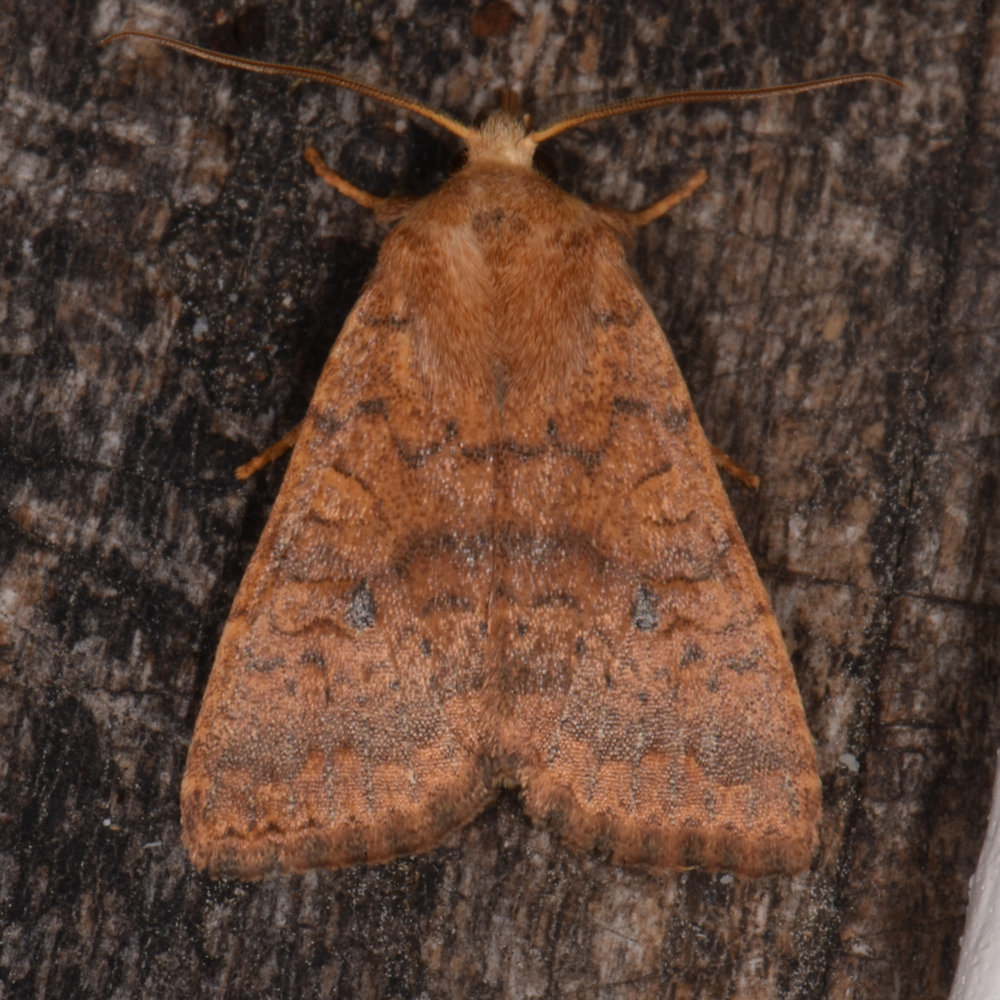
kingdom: Animalia
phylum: Arthropoda
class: Insecta
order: Lepidoptera
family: Noctuidae
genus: Agrochola
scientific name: Agrochola bicolorago
